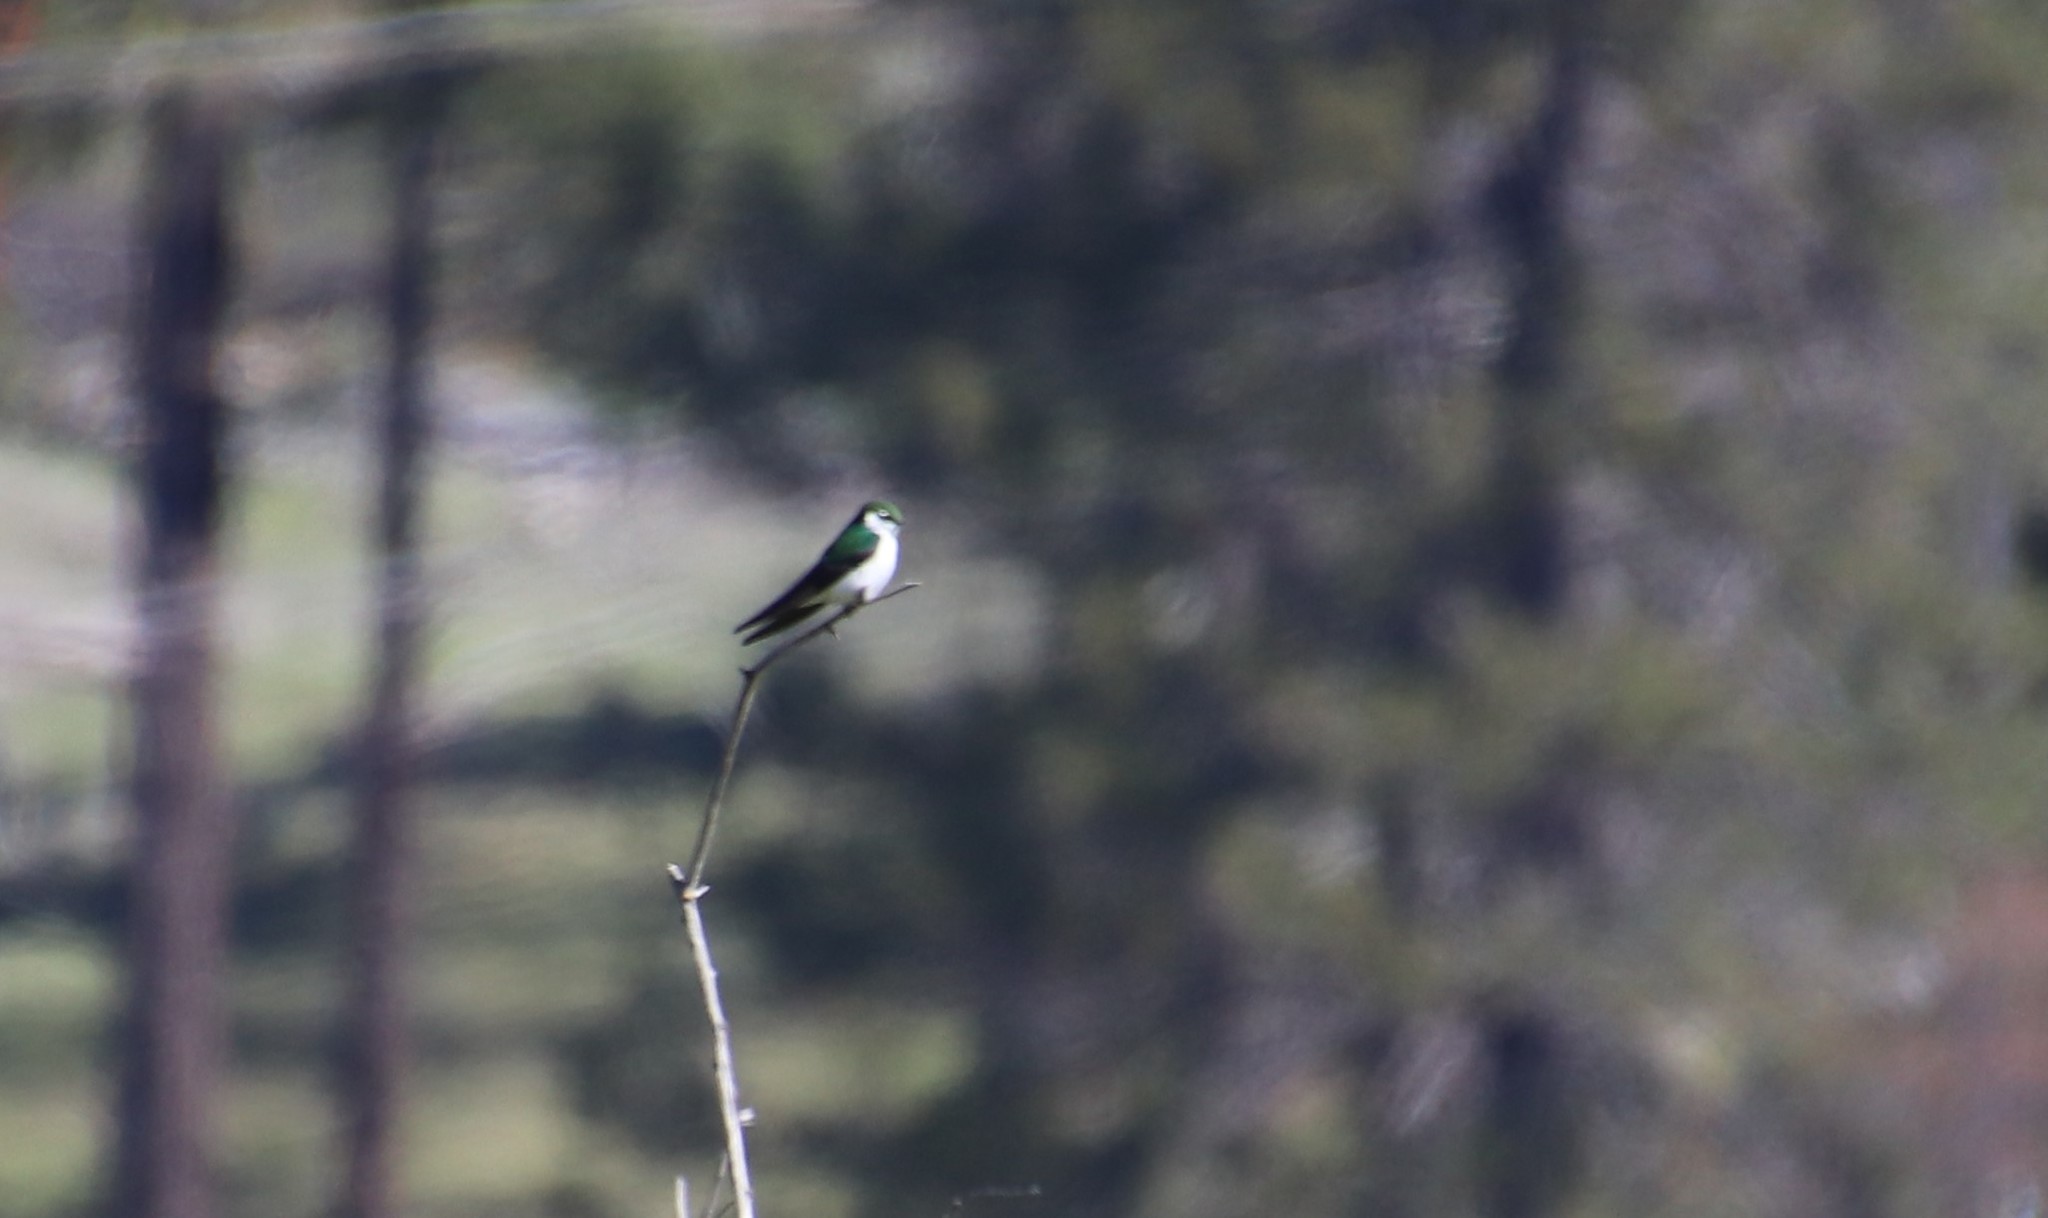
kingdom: Animalia
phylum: Chordata
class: Aves
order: Passeriformes
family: Hirundinidae
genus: Tachycineta
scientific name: Tachycineta thalassina
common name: Violet-green swallow
